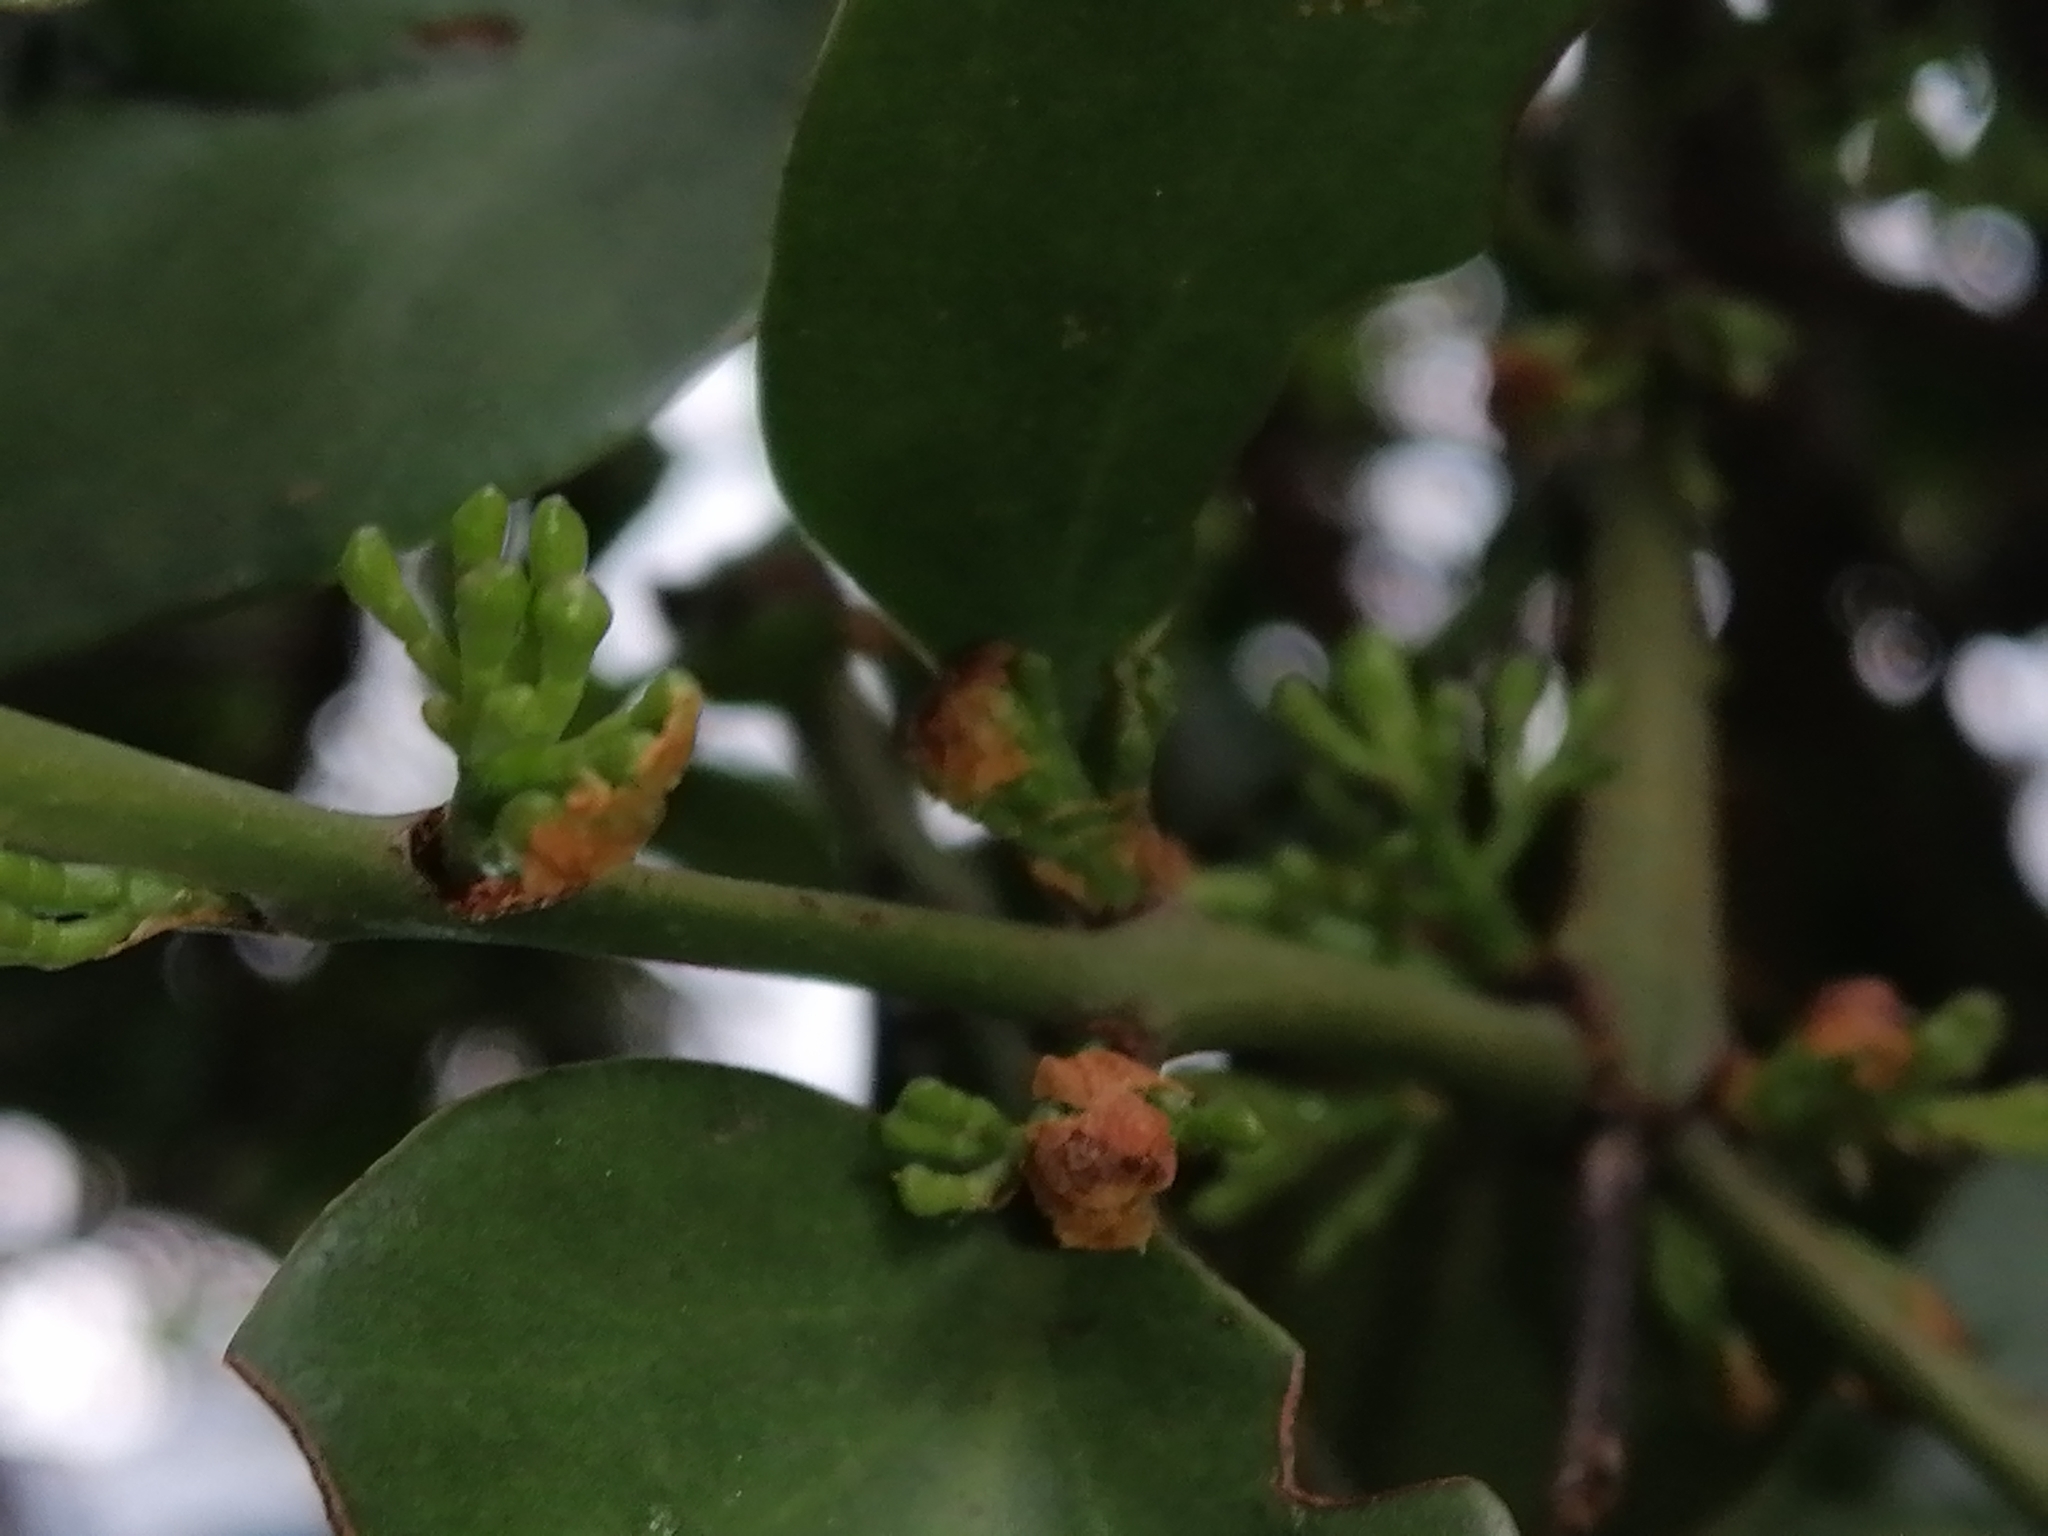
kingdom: Plantae
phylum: Tracheophyta
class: Magnoliopsida
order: Santalales
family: Loranthaceae
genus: Ileostylus
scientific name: Ileostylus micranthus
